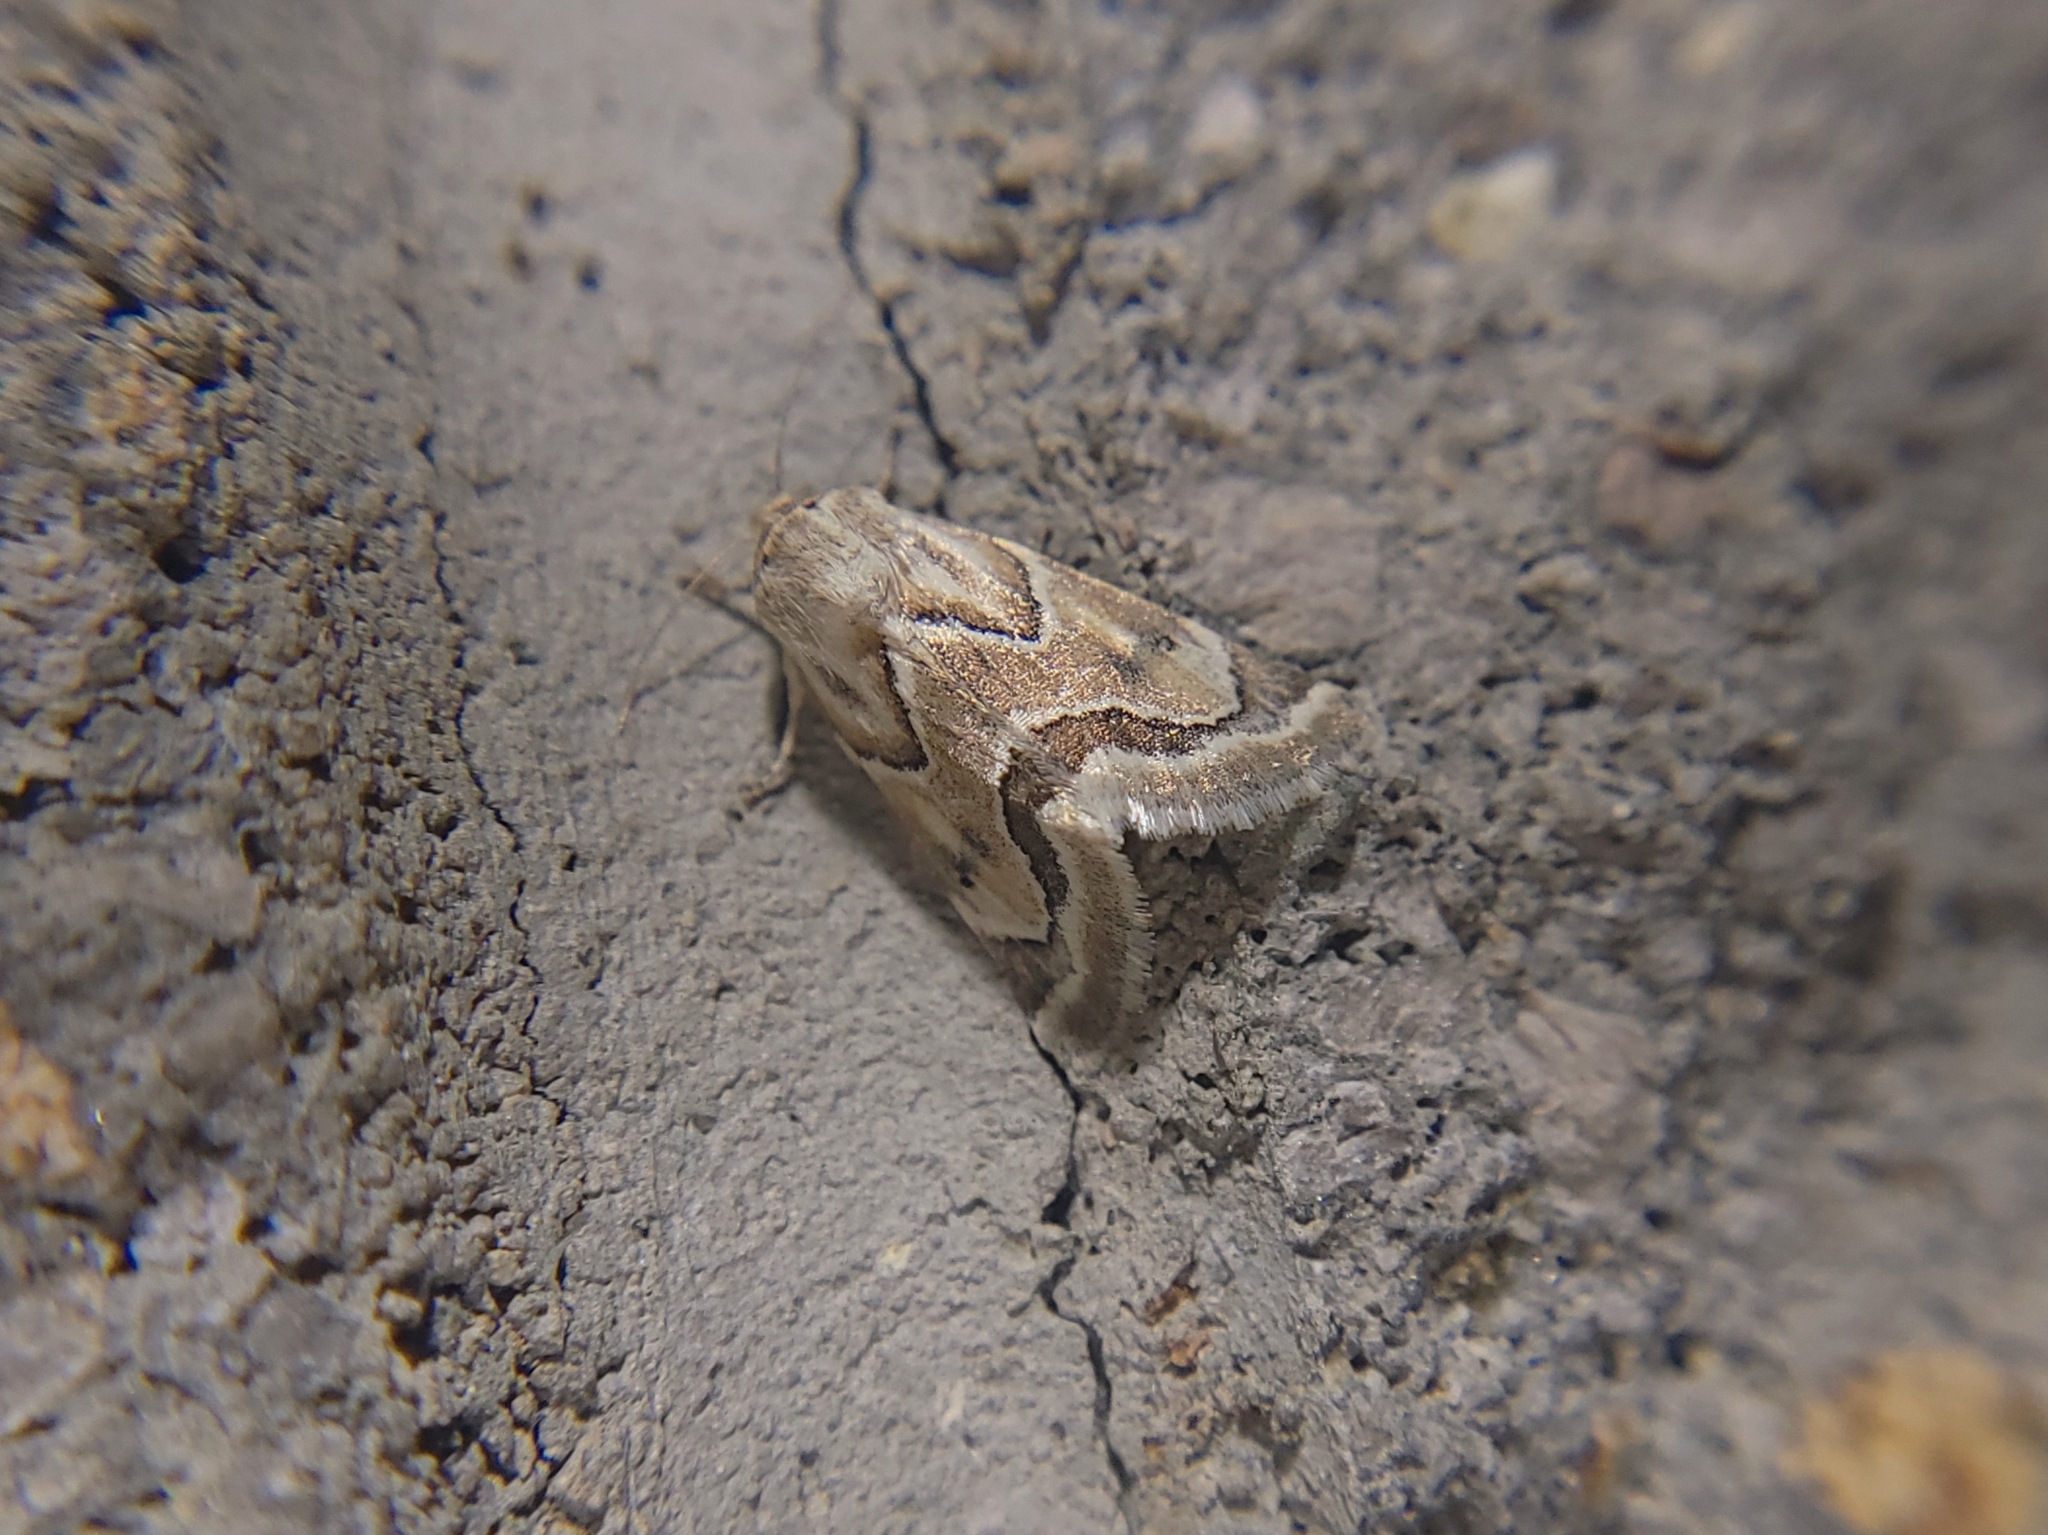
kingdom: Animalia
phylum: Arthropoda
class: Insecta
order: Lepidoptera
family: Noctuidae
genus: Schinia
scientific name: Schinia acutilinea
